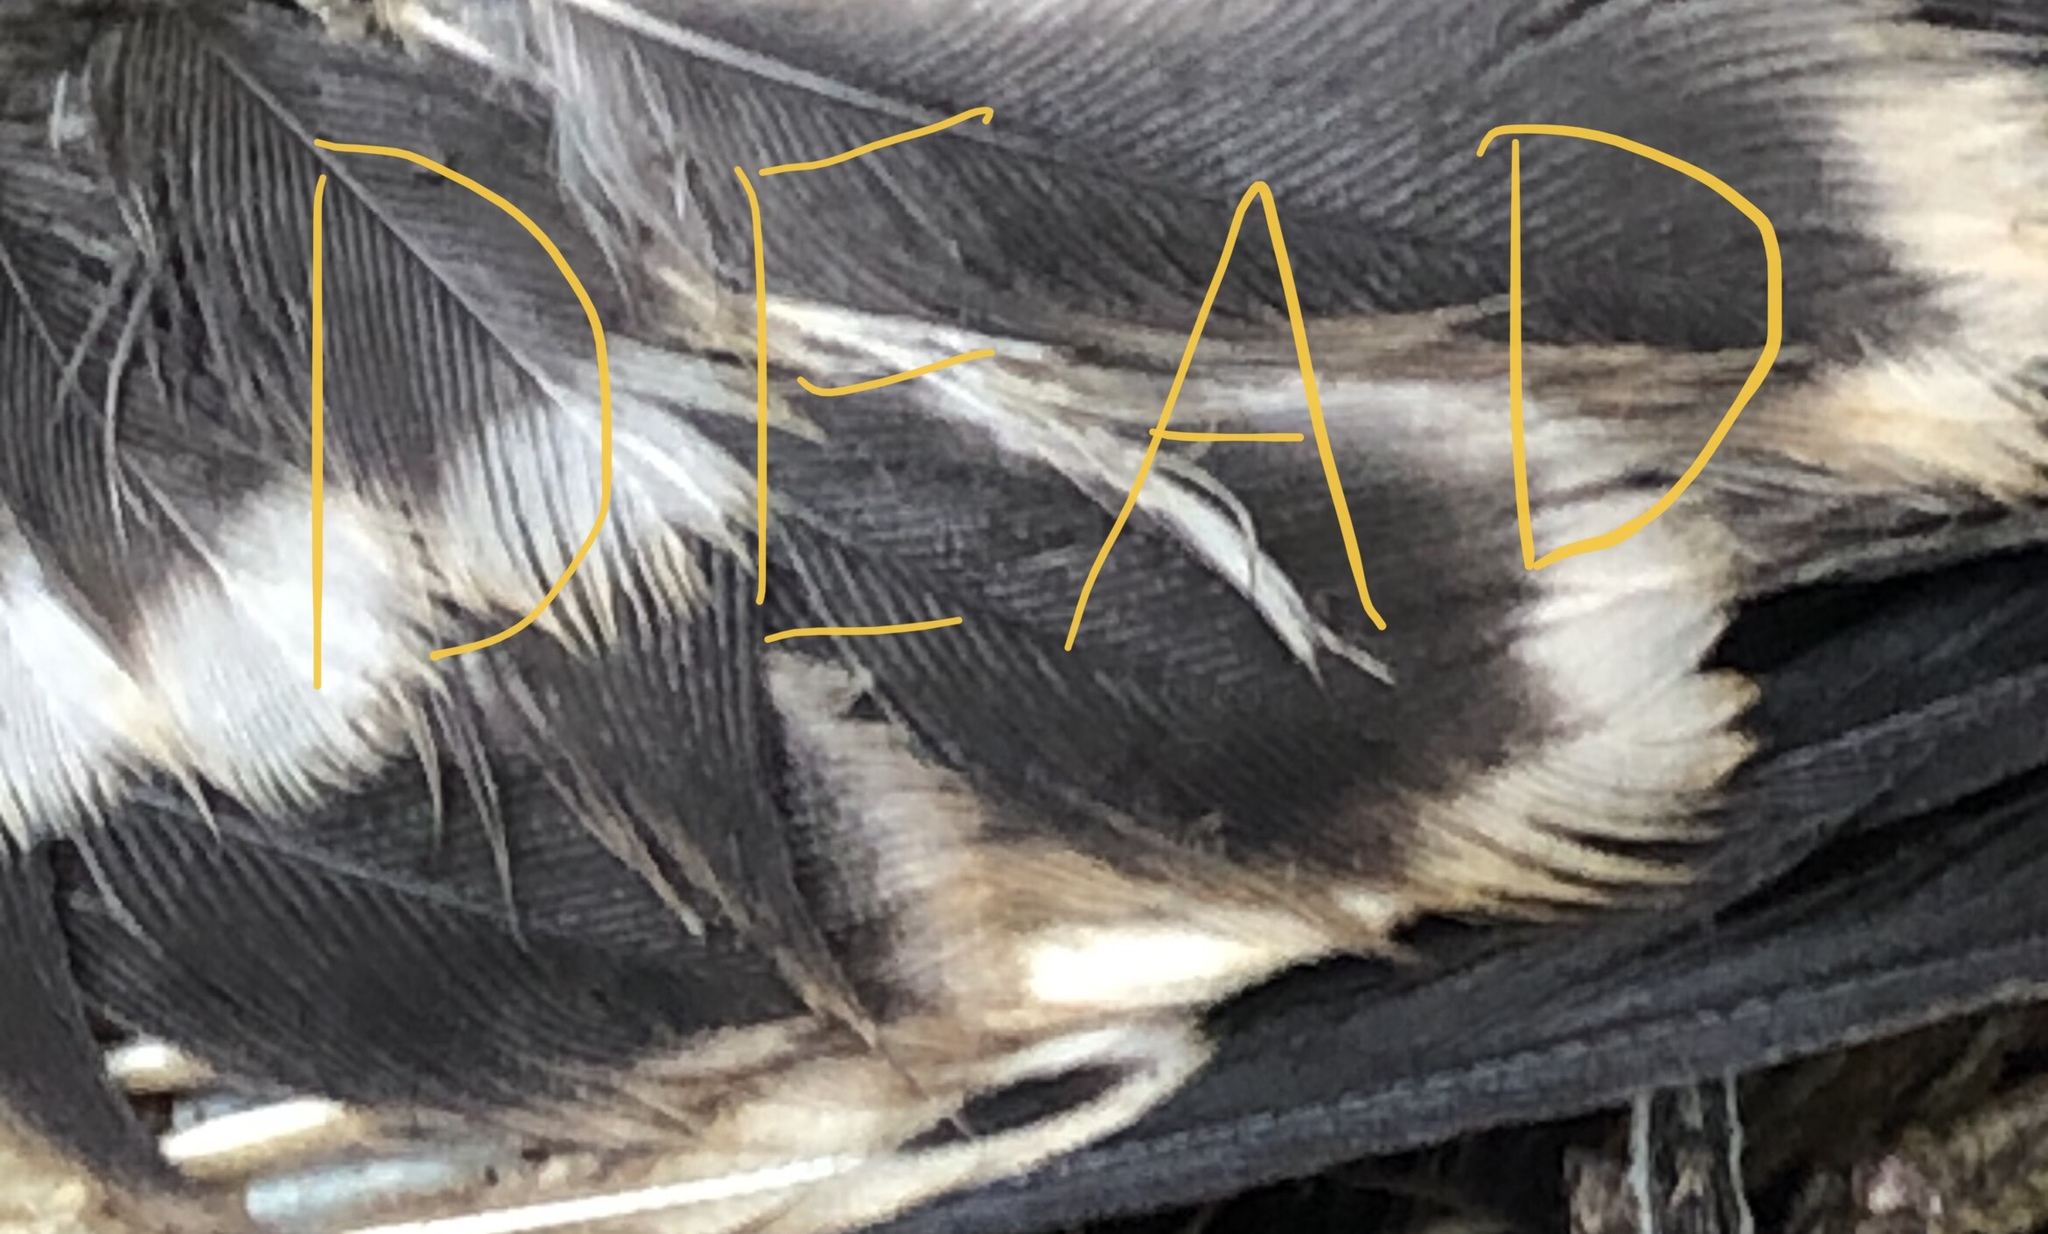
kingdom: Animalia
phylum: Chordata
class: Aves
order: Passeriformes
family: Mimidae
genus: Mimus
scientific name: Mimus polyglottos
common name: Northern mockingbird
